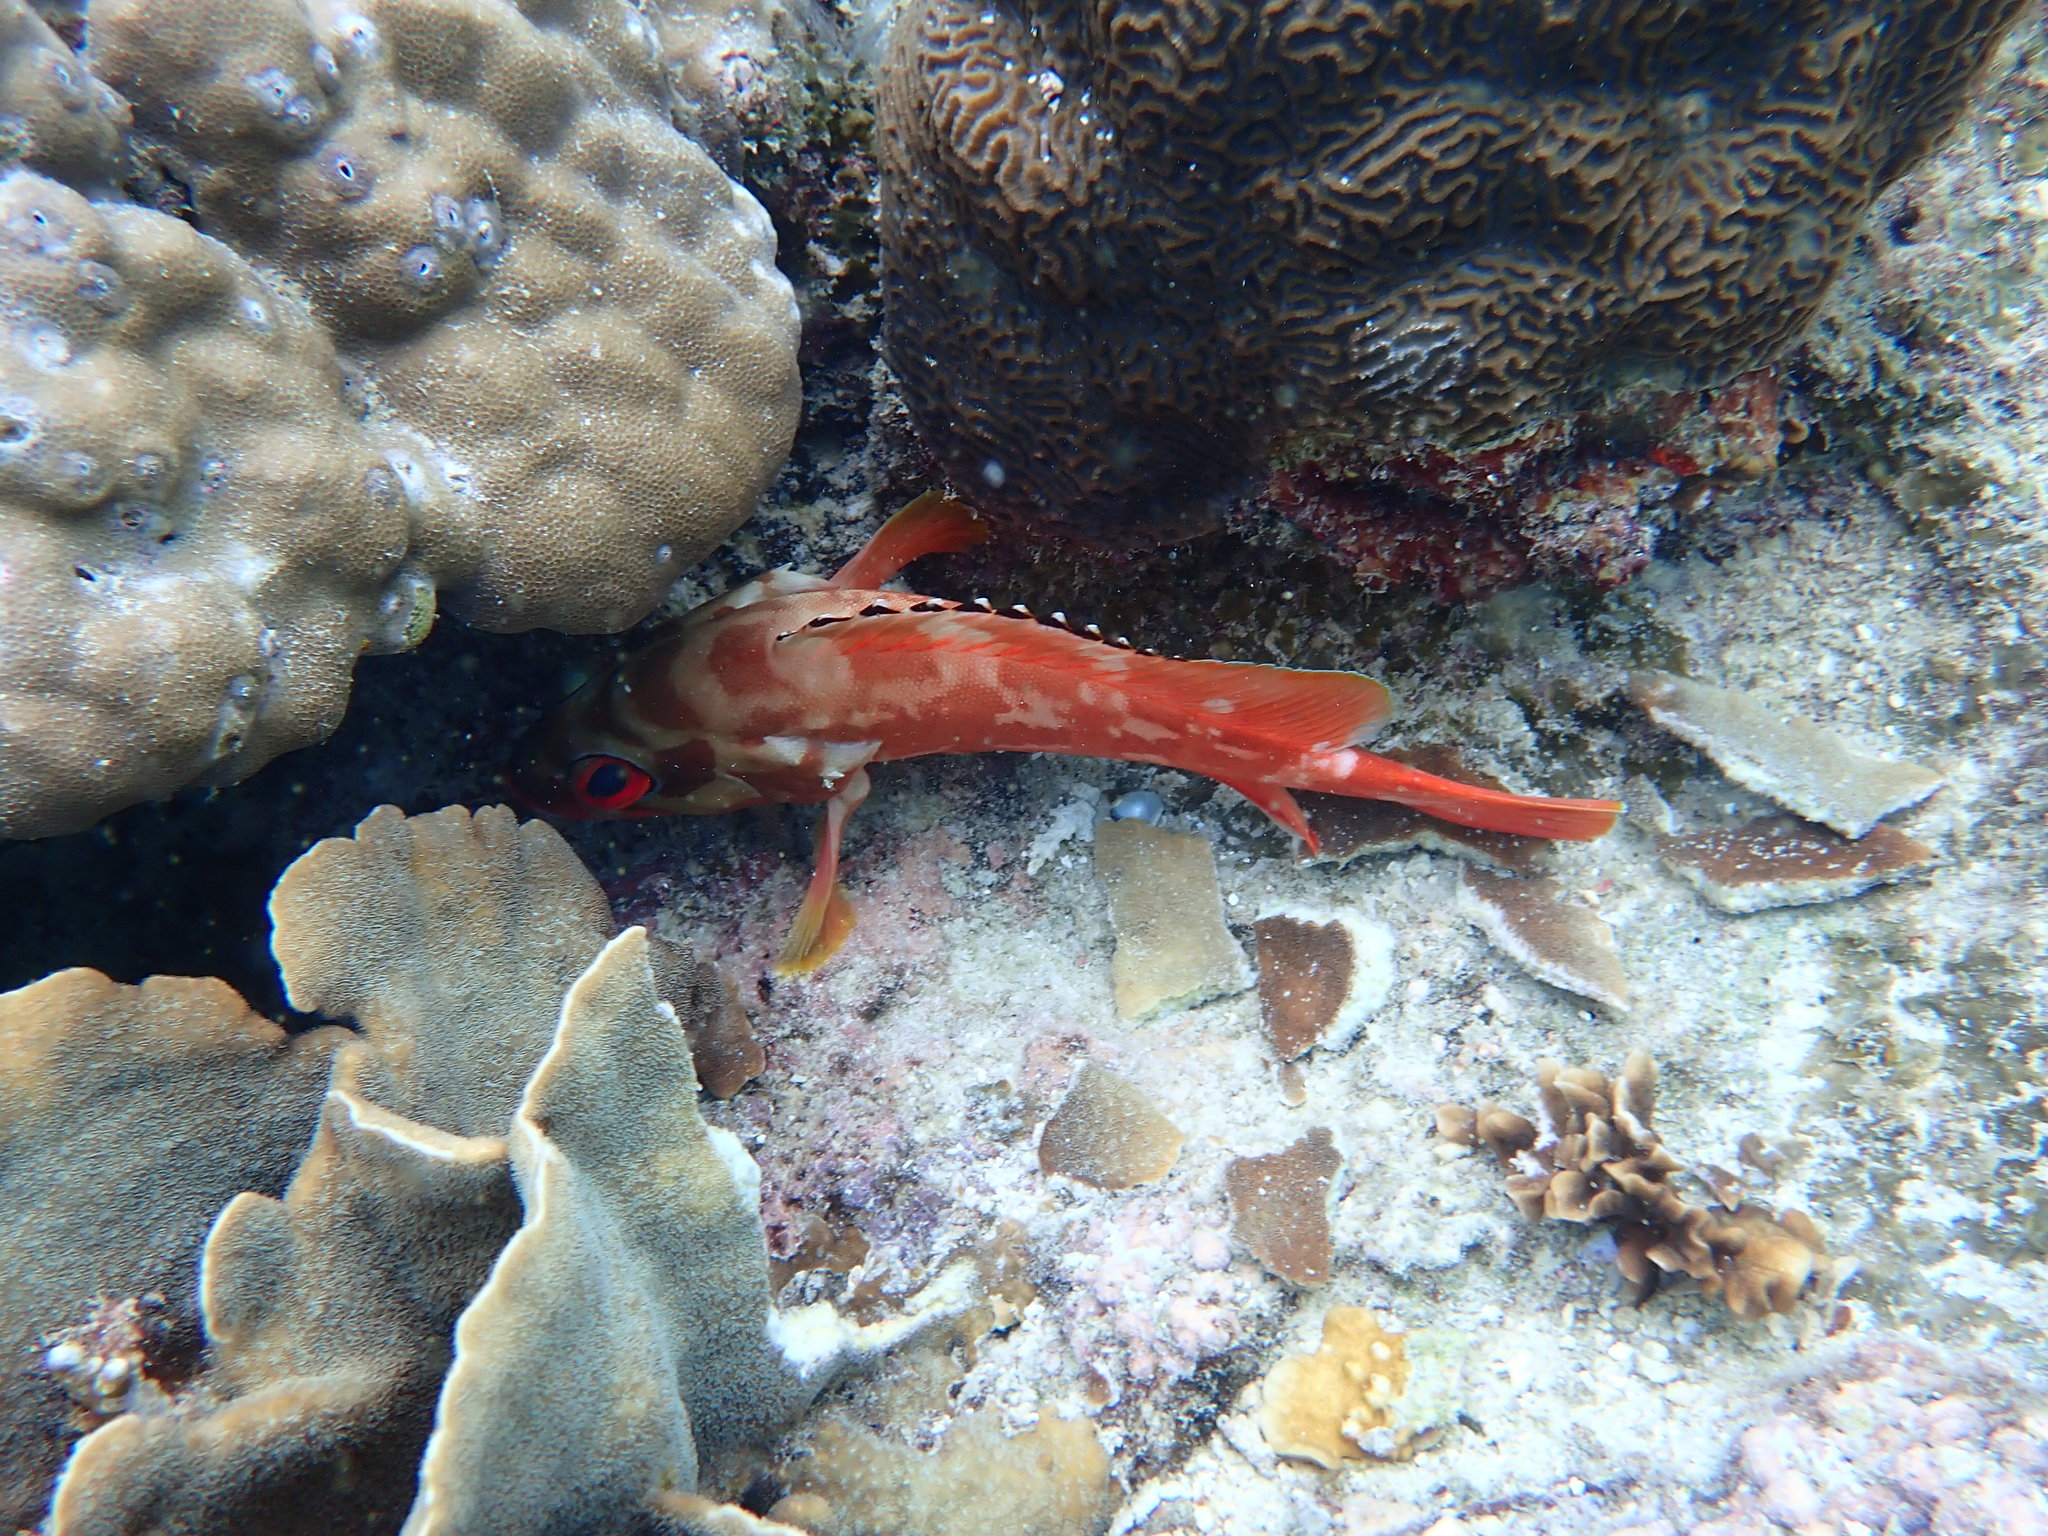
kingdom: Animalia
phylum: Chordata
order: Perciformes
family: Serranidae
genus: Epinephelus
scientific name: Epinephelus fasciatus
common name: Blacktip grouper
